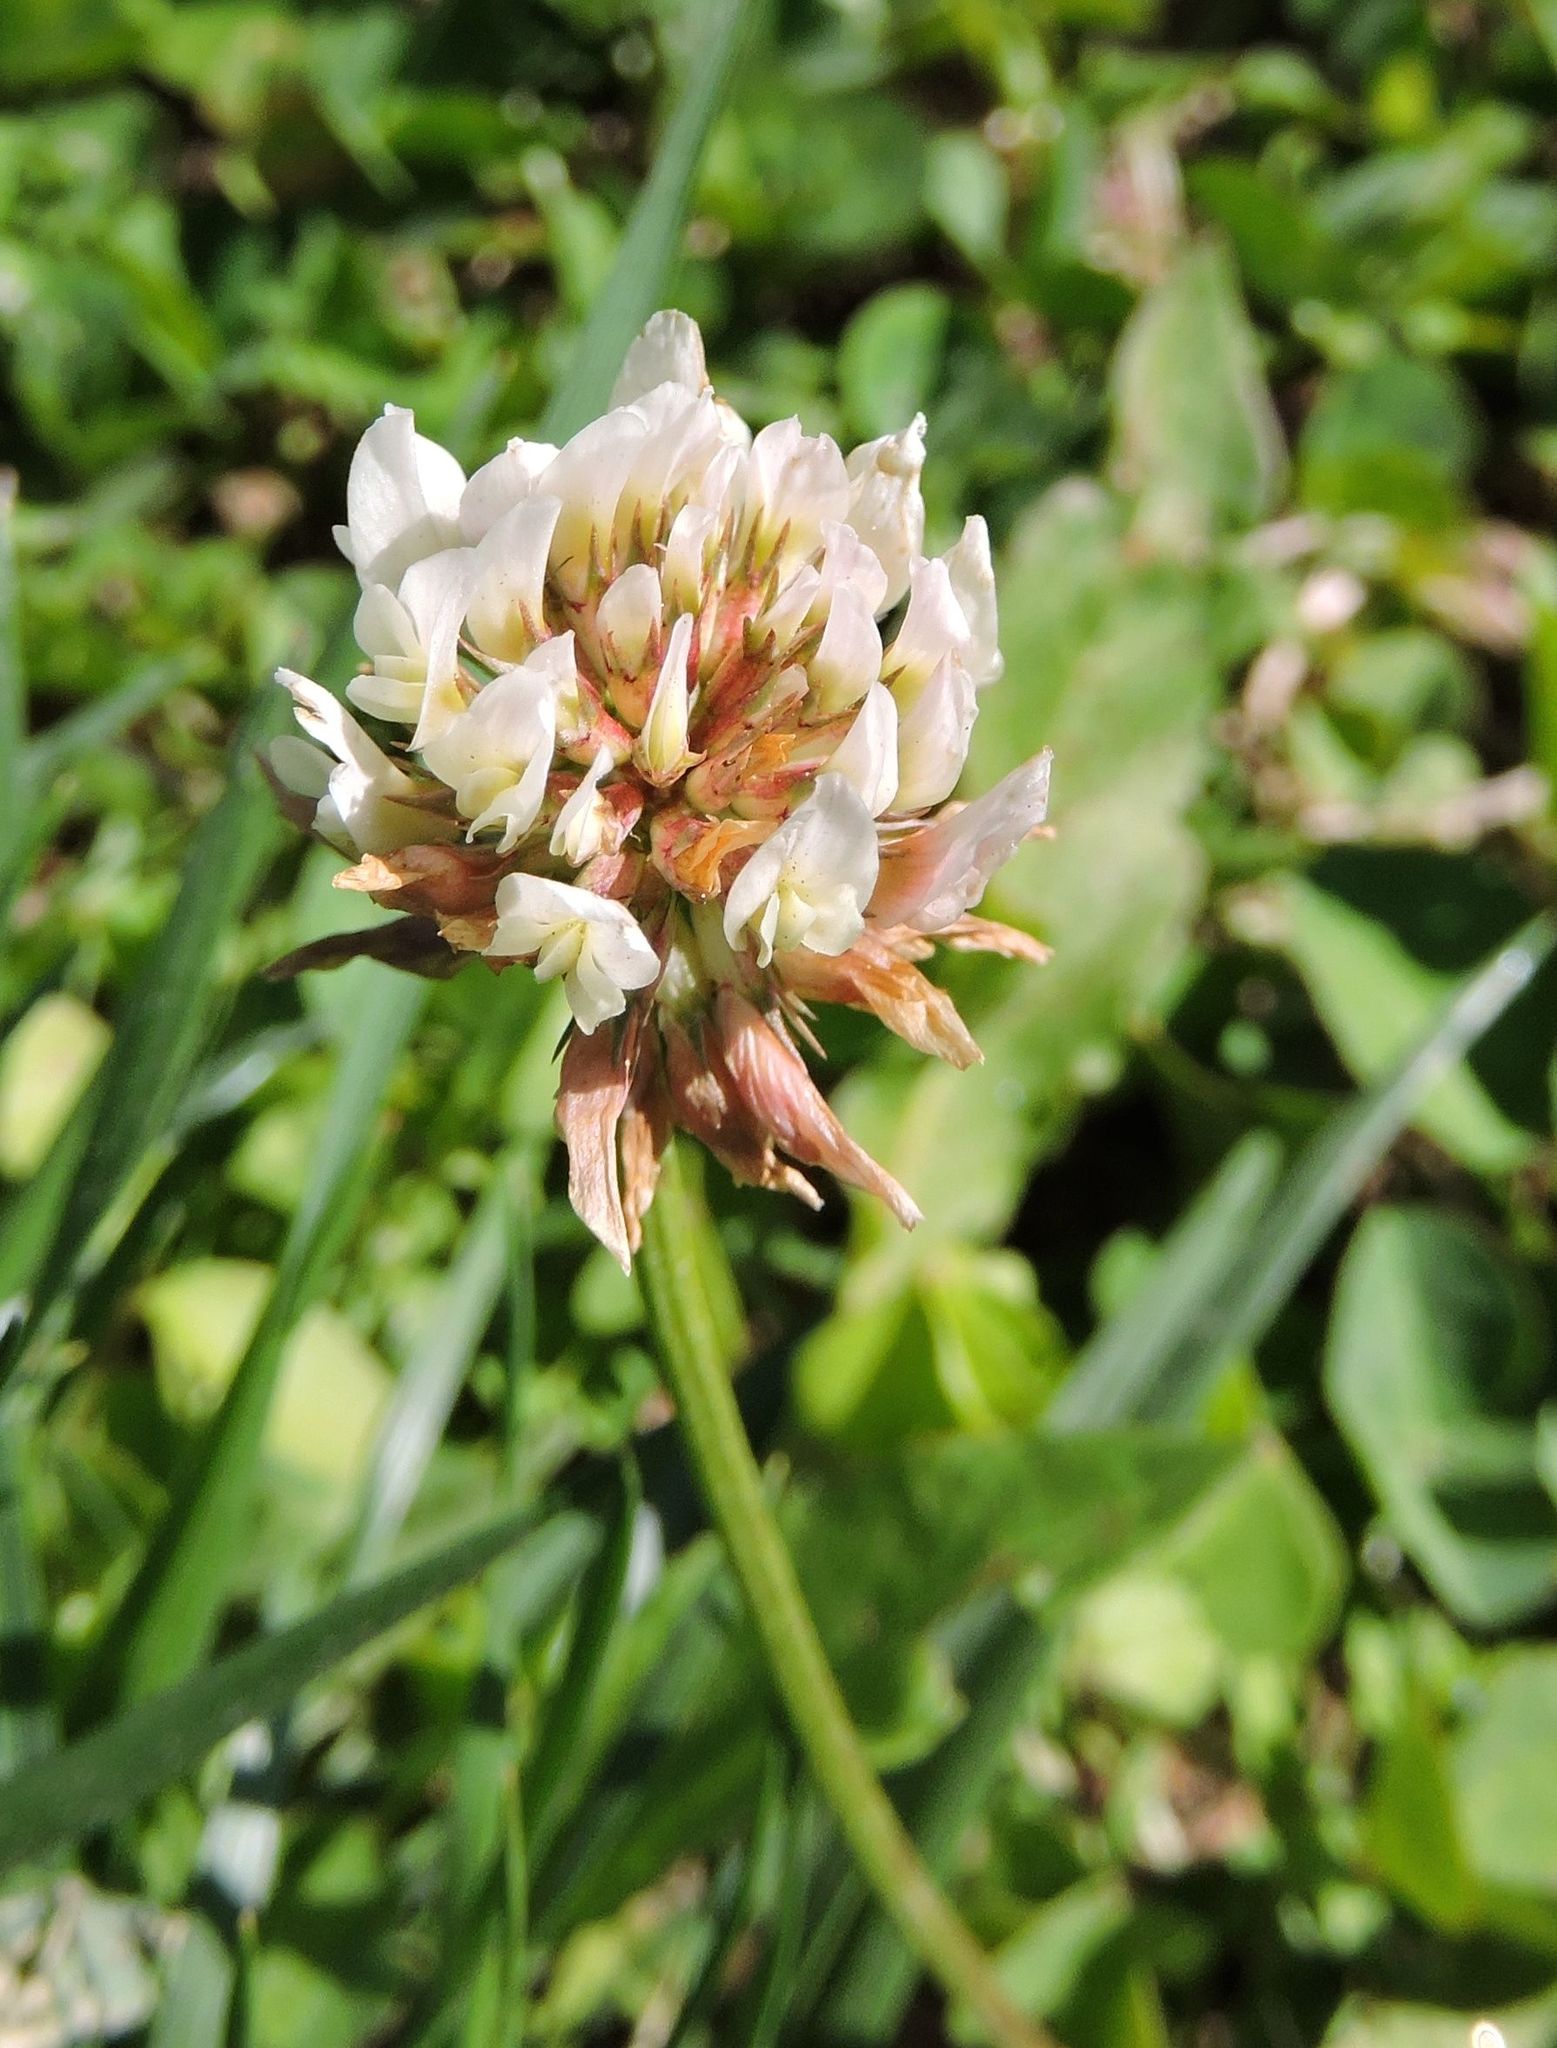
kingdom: Plantae
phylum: Tracheophyta
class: Magnoliopsida
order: Fabales
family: Fabaceae
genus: Trifolium
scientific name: Trifolium repens
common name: White clover
